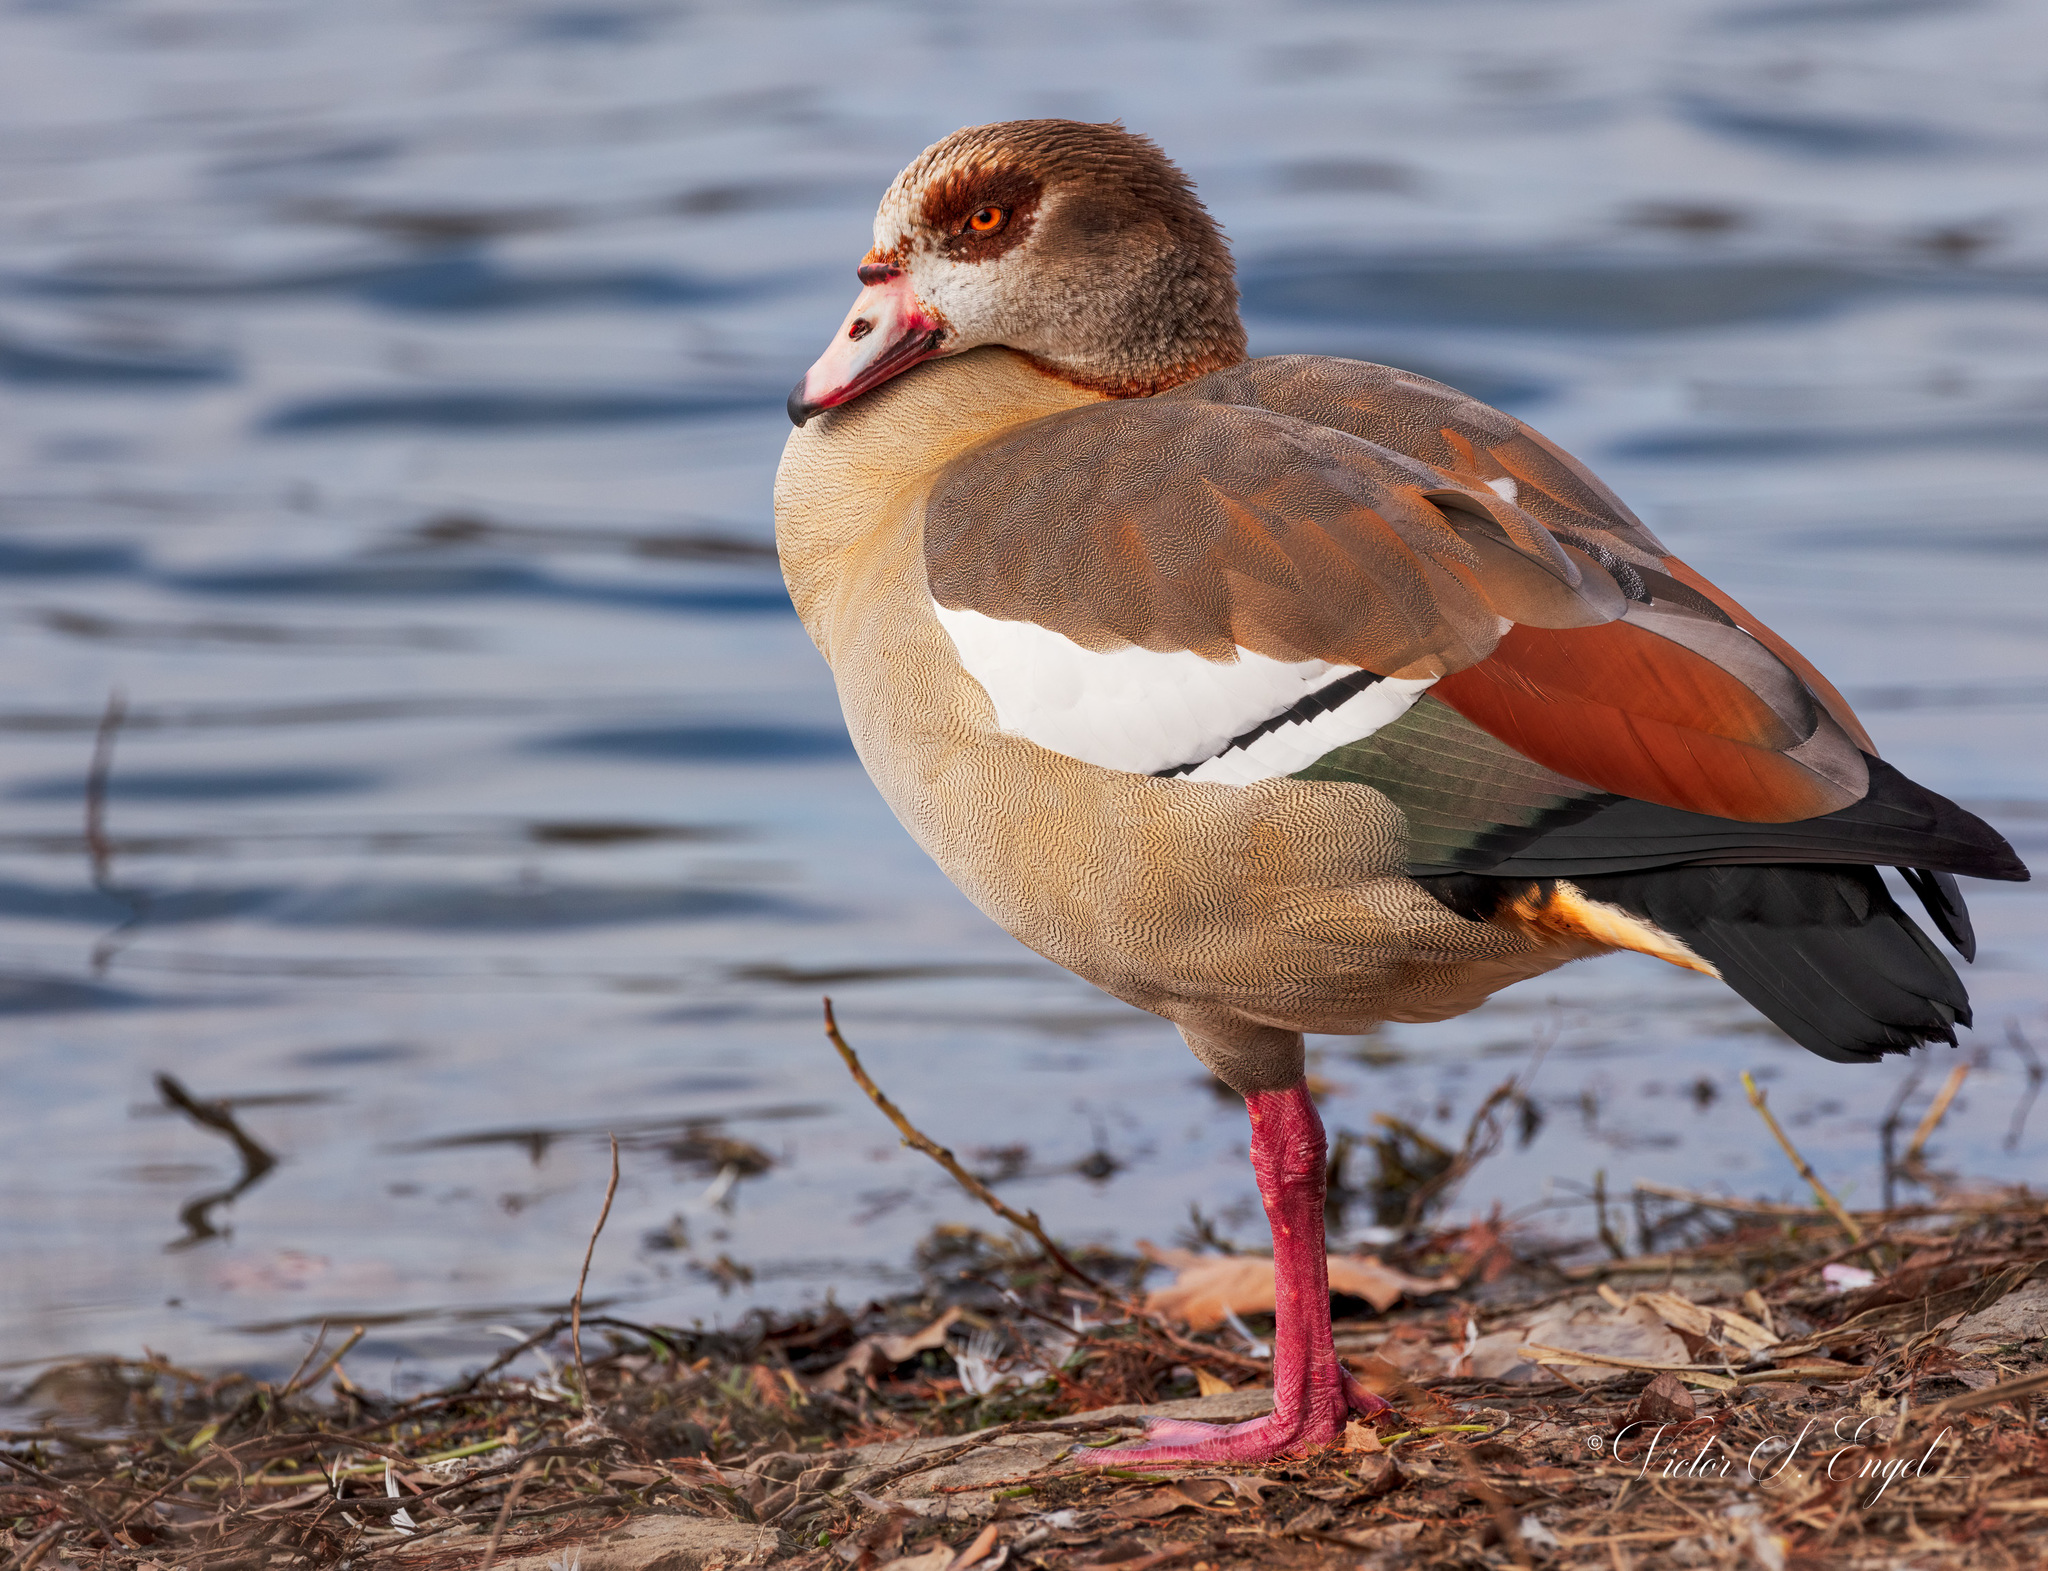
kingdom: Animalia
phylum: Chordata
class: Aves
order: Anseriformes
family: Anatidae
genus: Alopochen
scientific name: Alopochen aegyptiaca
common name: Egyptian goose
